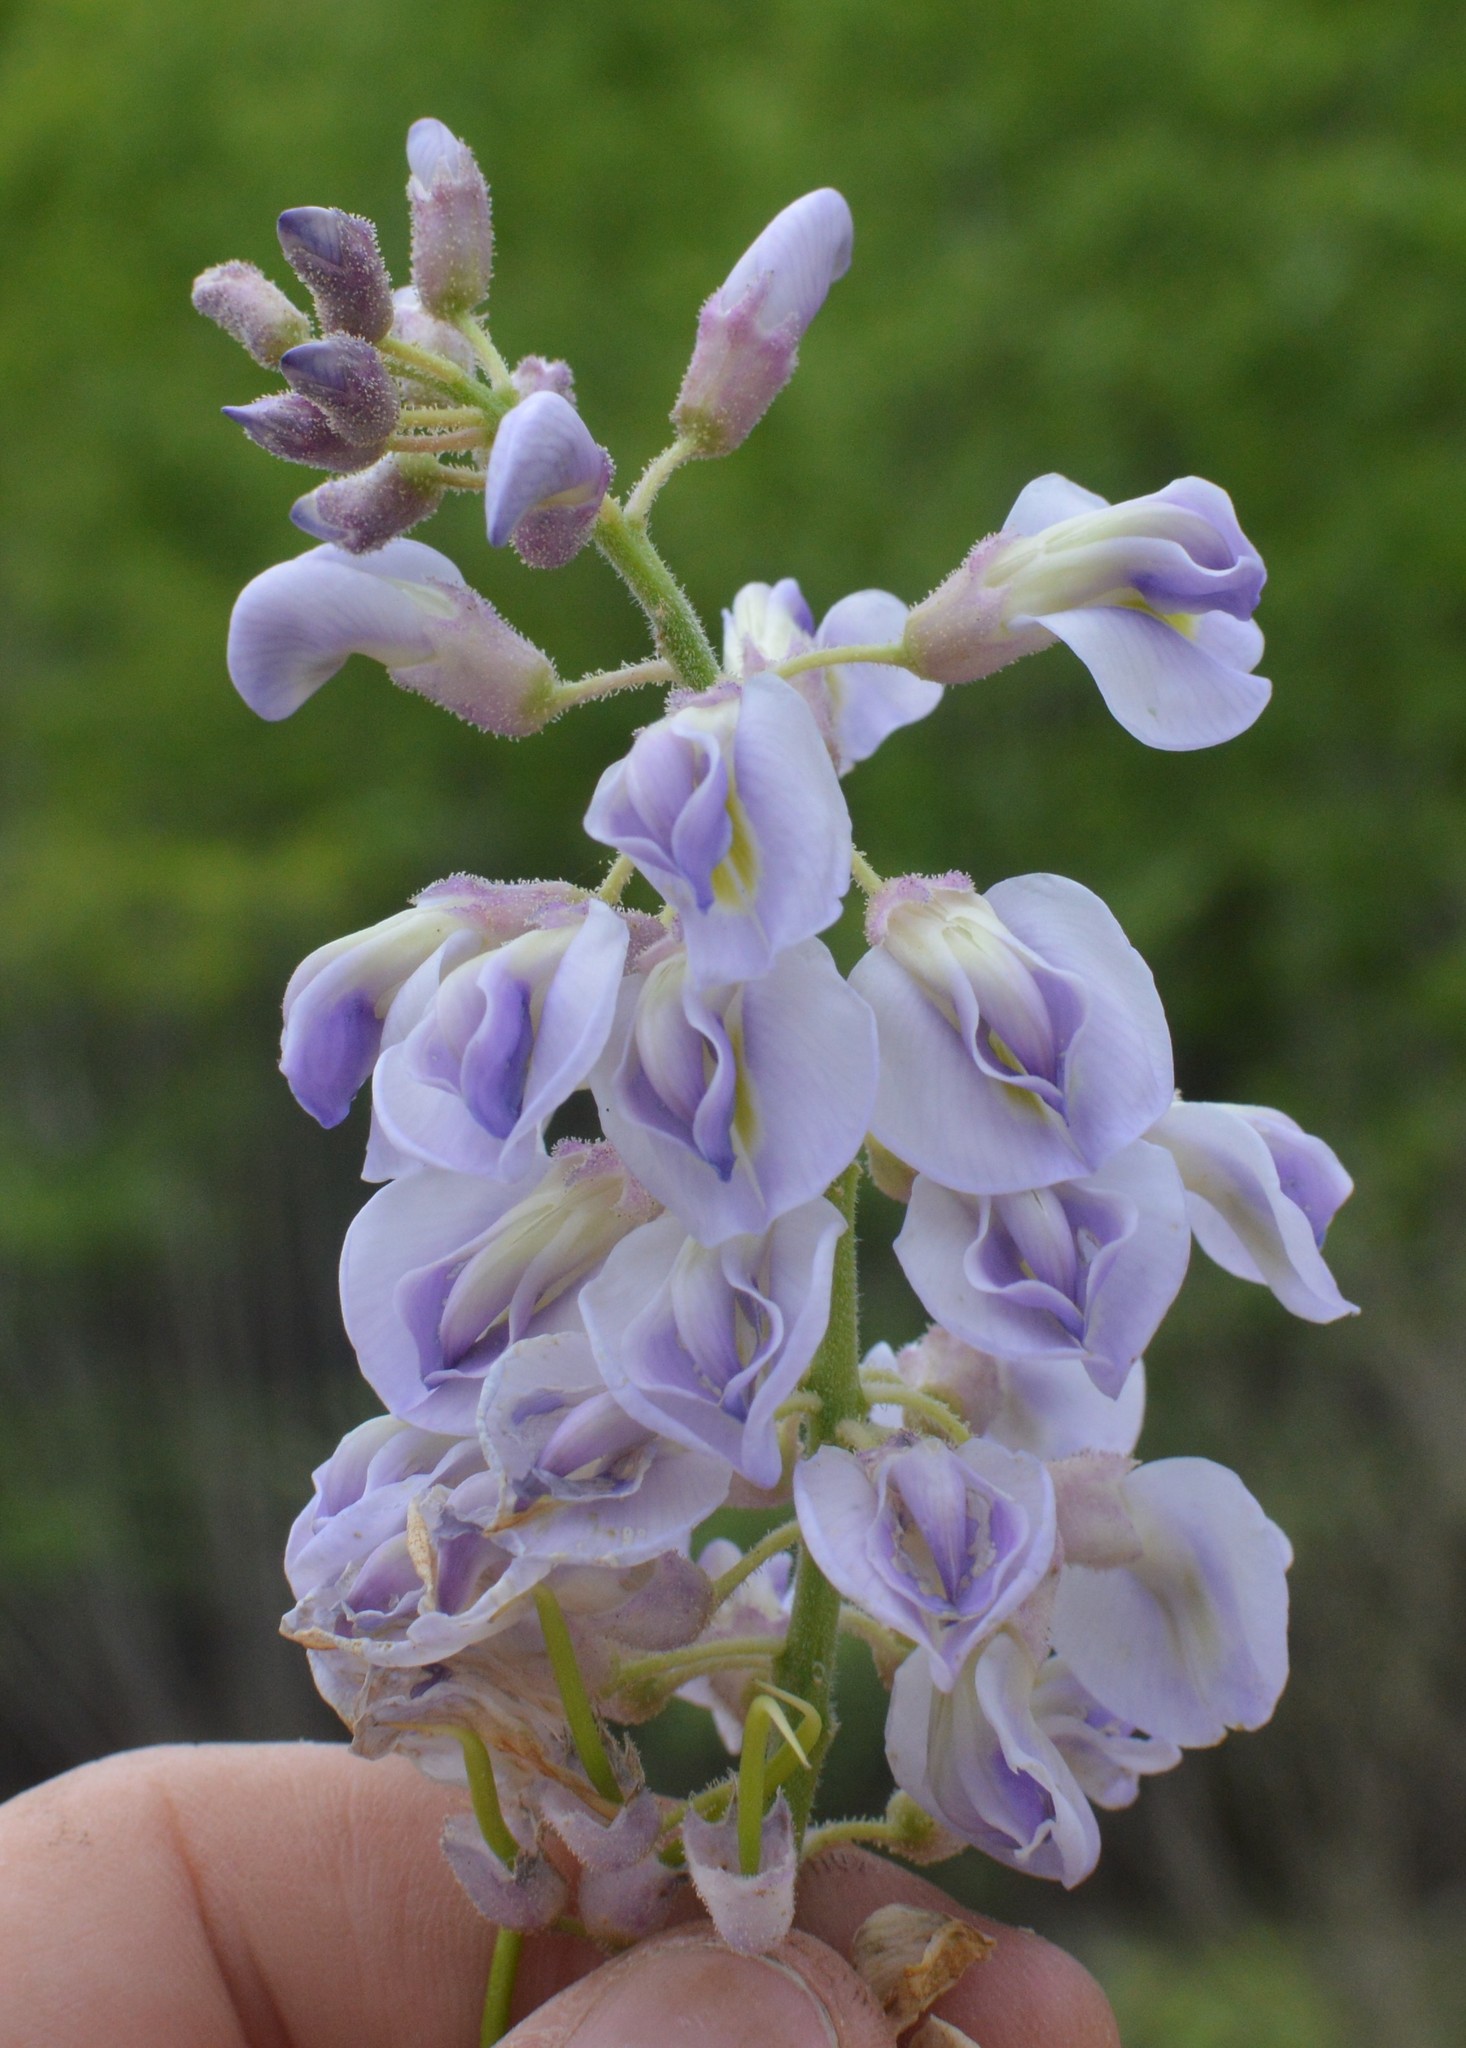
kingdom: Plantae
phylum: Tracheophyta
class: Magnoliopsida
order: Fabales
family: Fabaceae
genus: Wisteria
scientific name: Wisteria frutescens
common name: American wisteria
